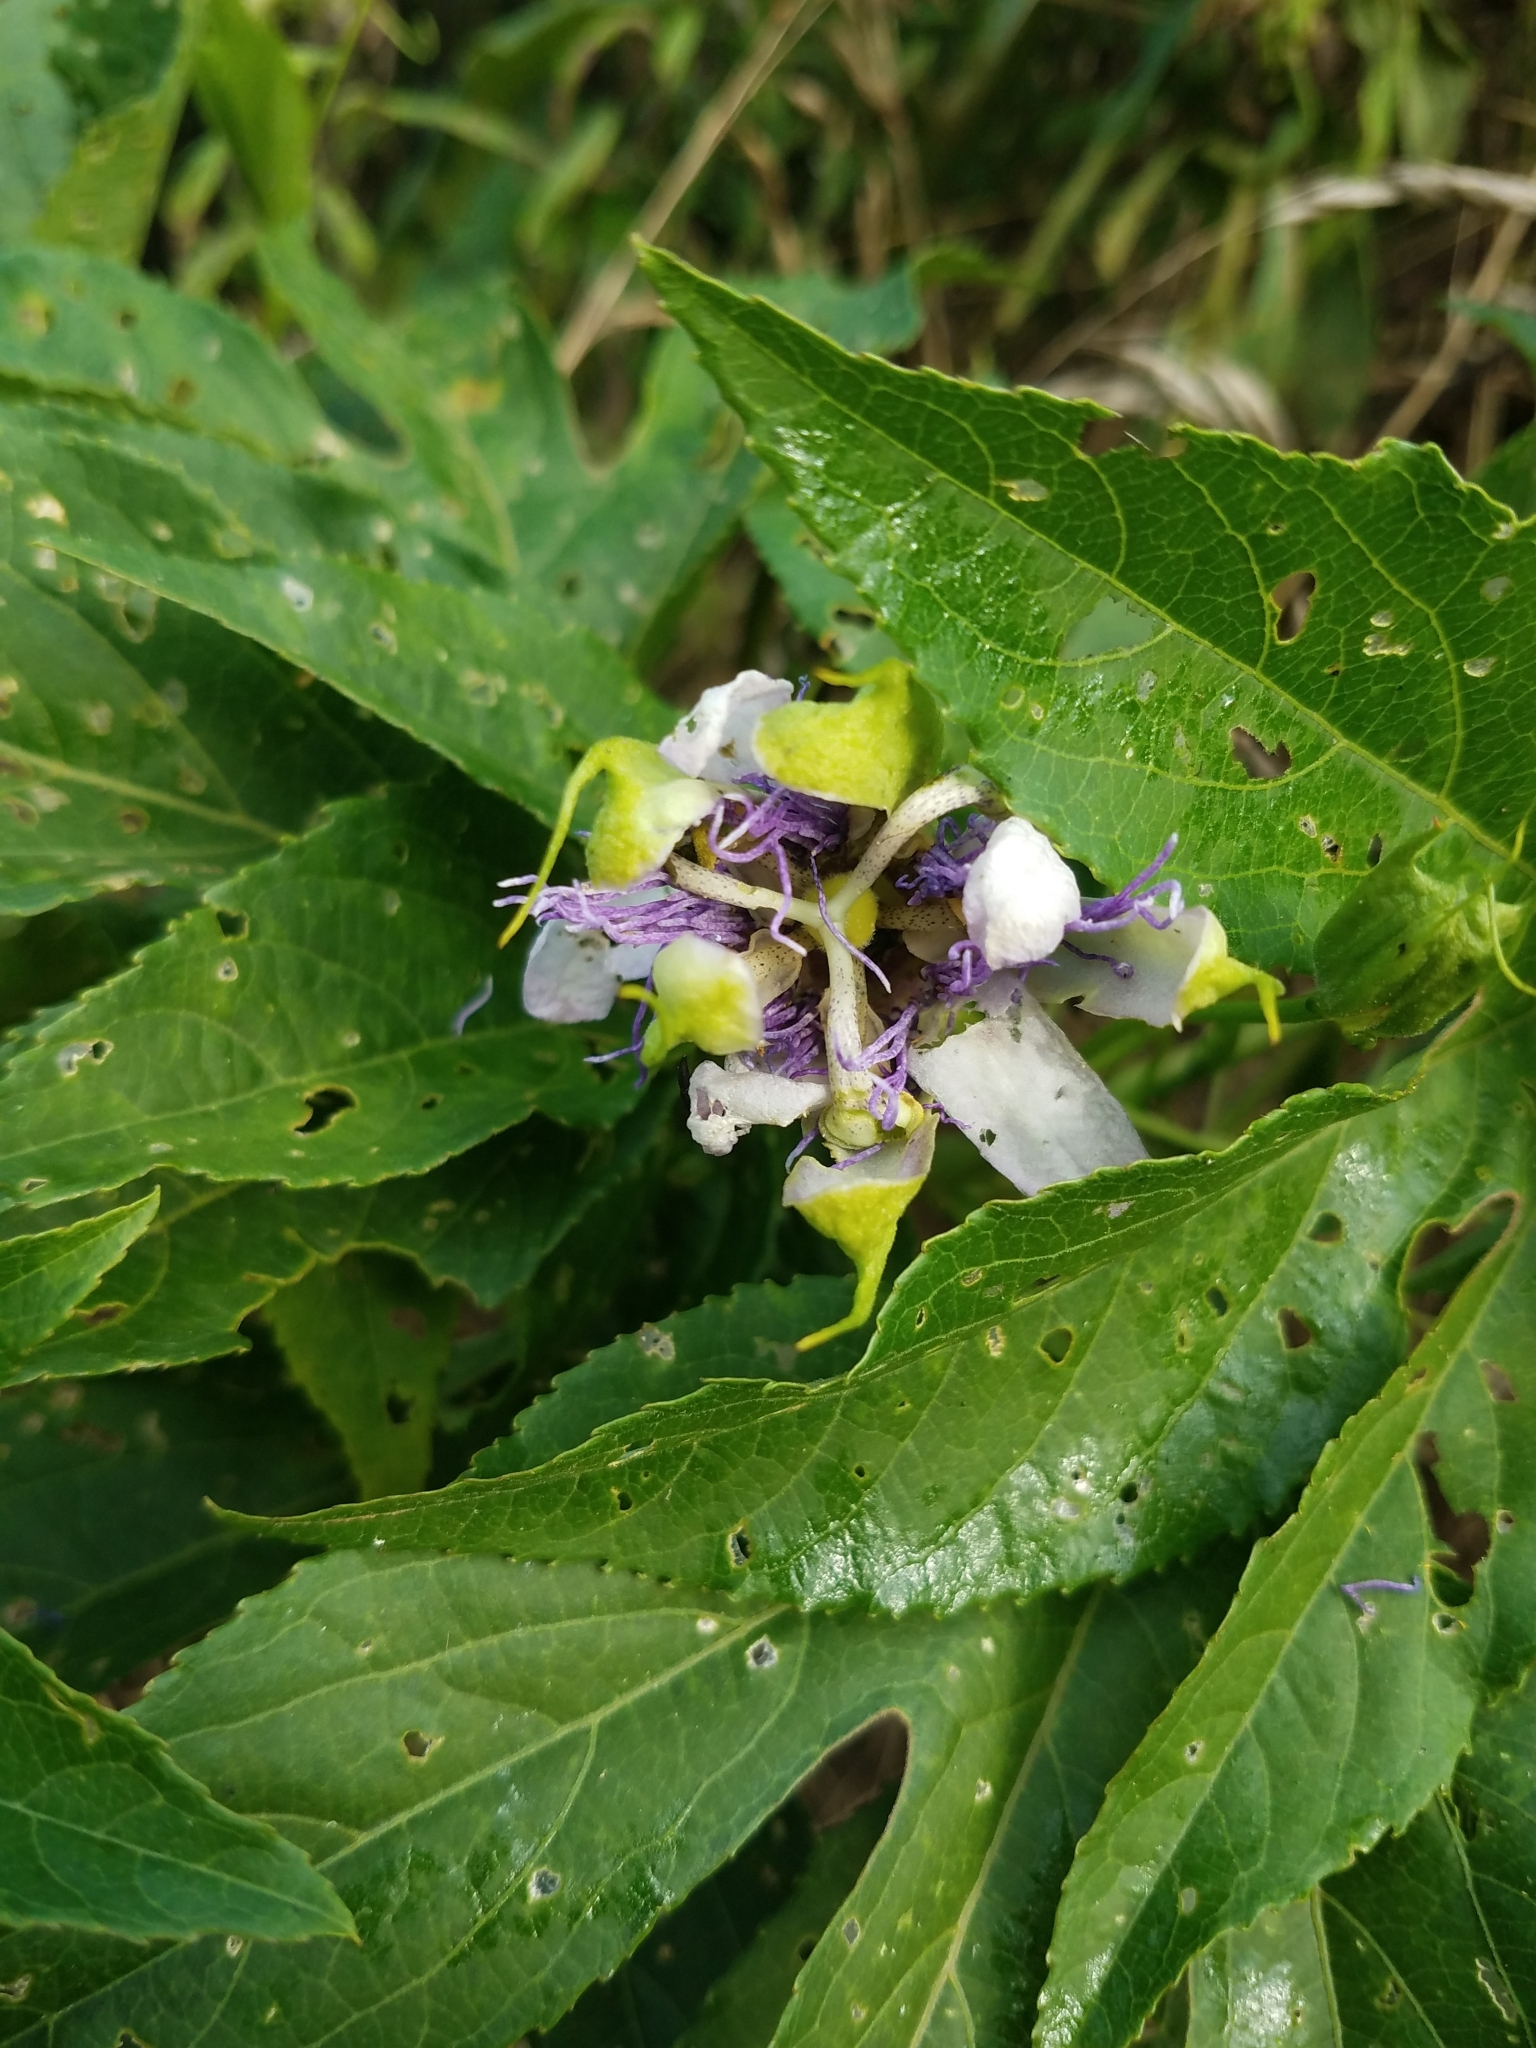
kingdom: Plantae
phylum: Tracheophyta
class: Magnoliopsida
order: Malpighiales
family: Passifloraceae
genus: Passiflora
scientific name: Passiflora incarnata
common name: Apricot-vine
